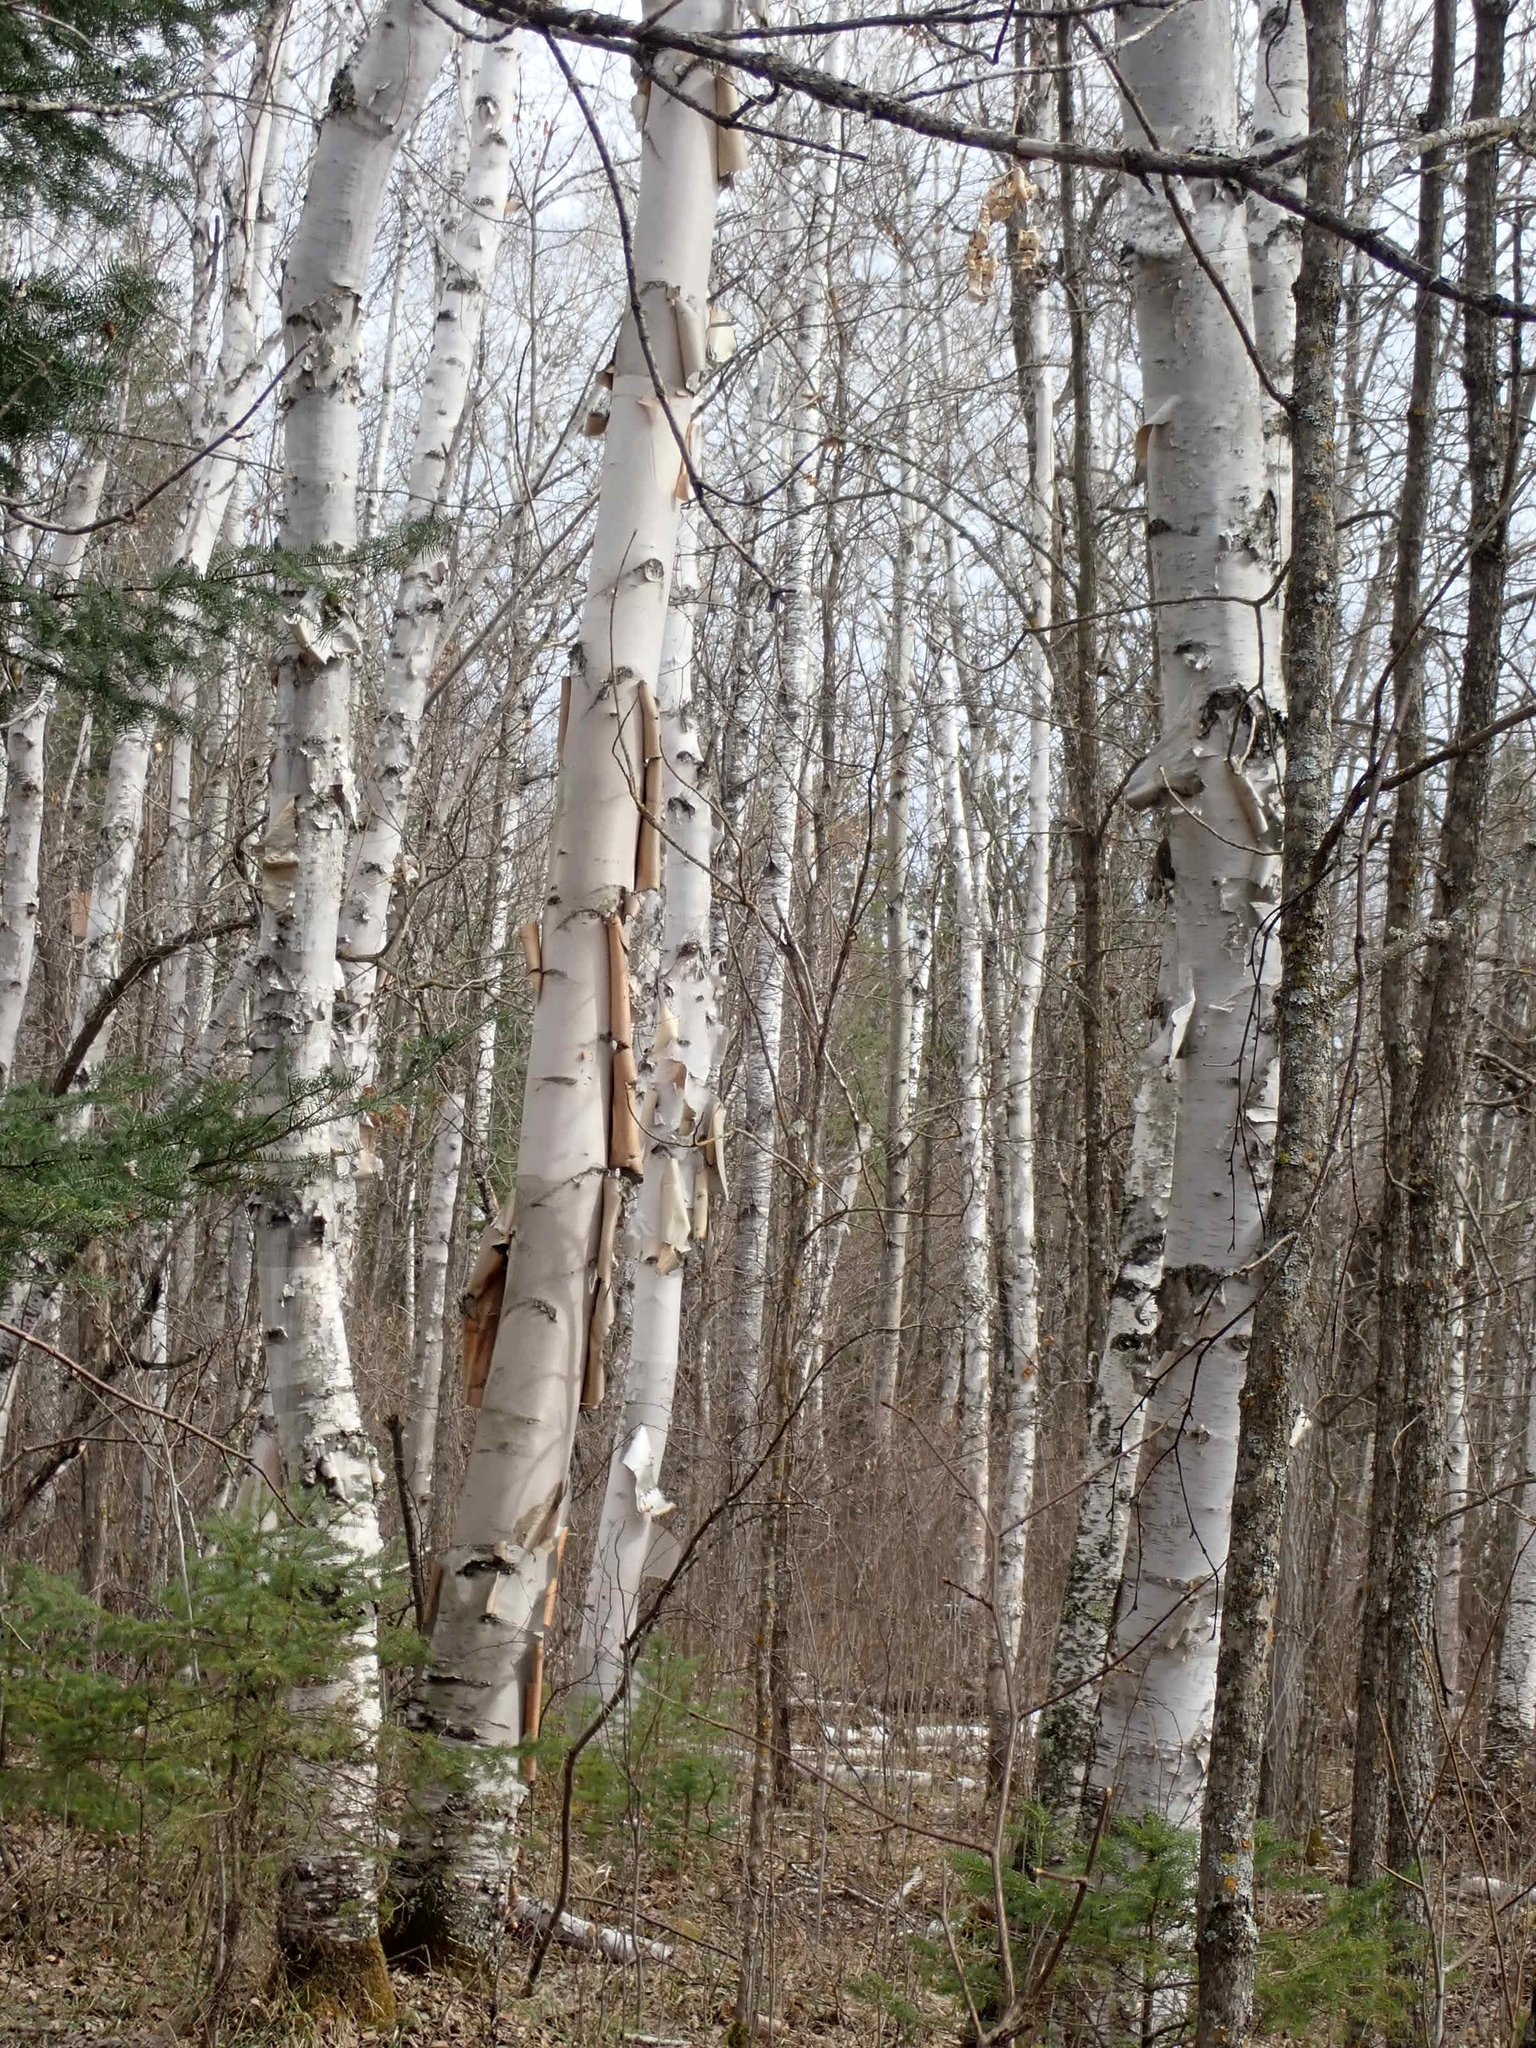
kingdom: Plantae
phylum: Tracheophyta
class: Magnoliopsida
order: Fagales
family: Betulaceae
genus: Betula
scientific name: Betula papyrifera
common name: Paper birch
